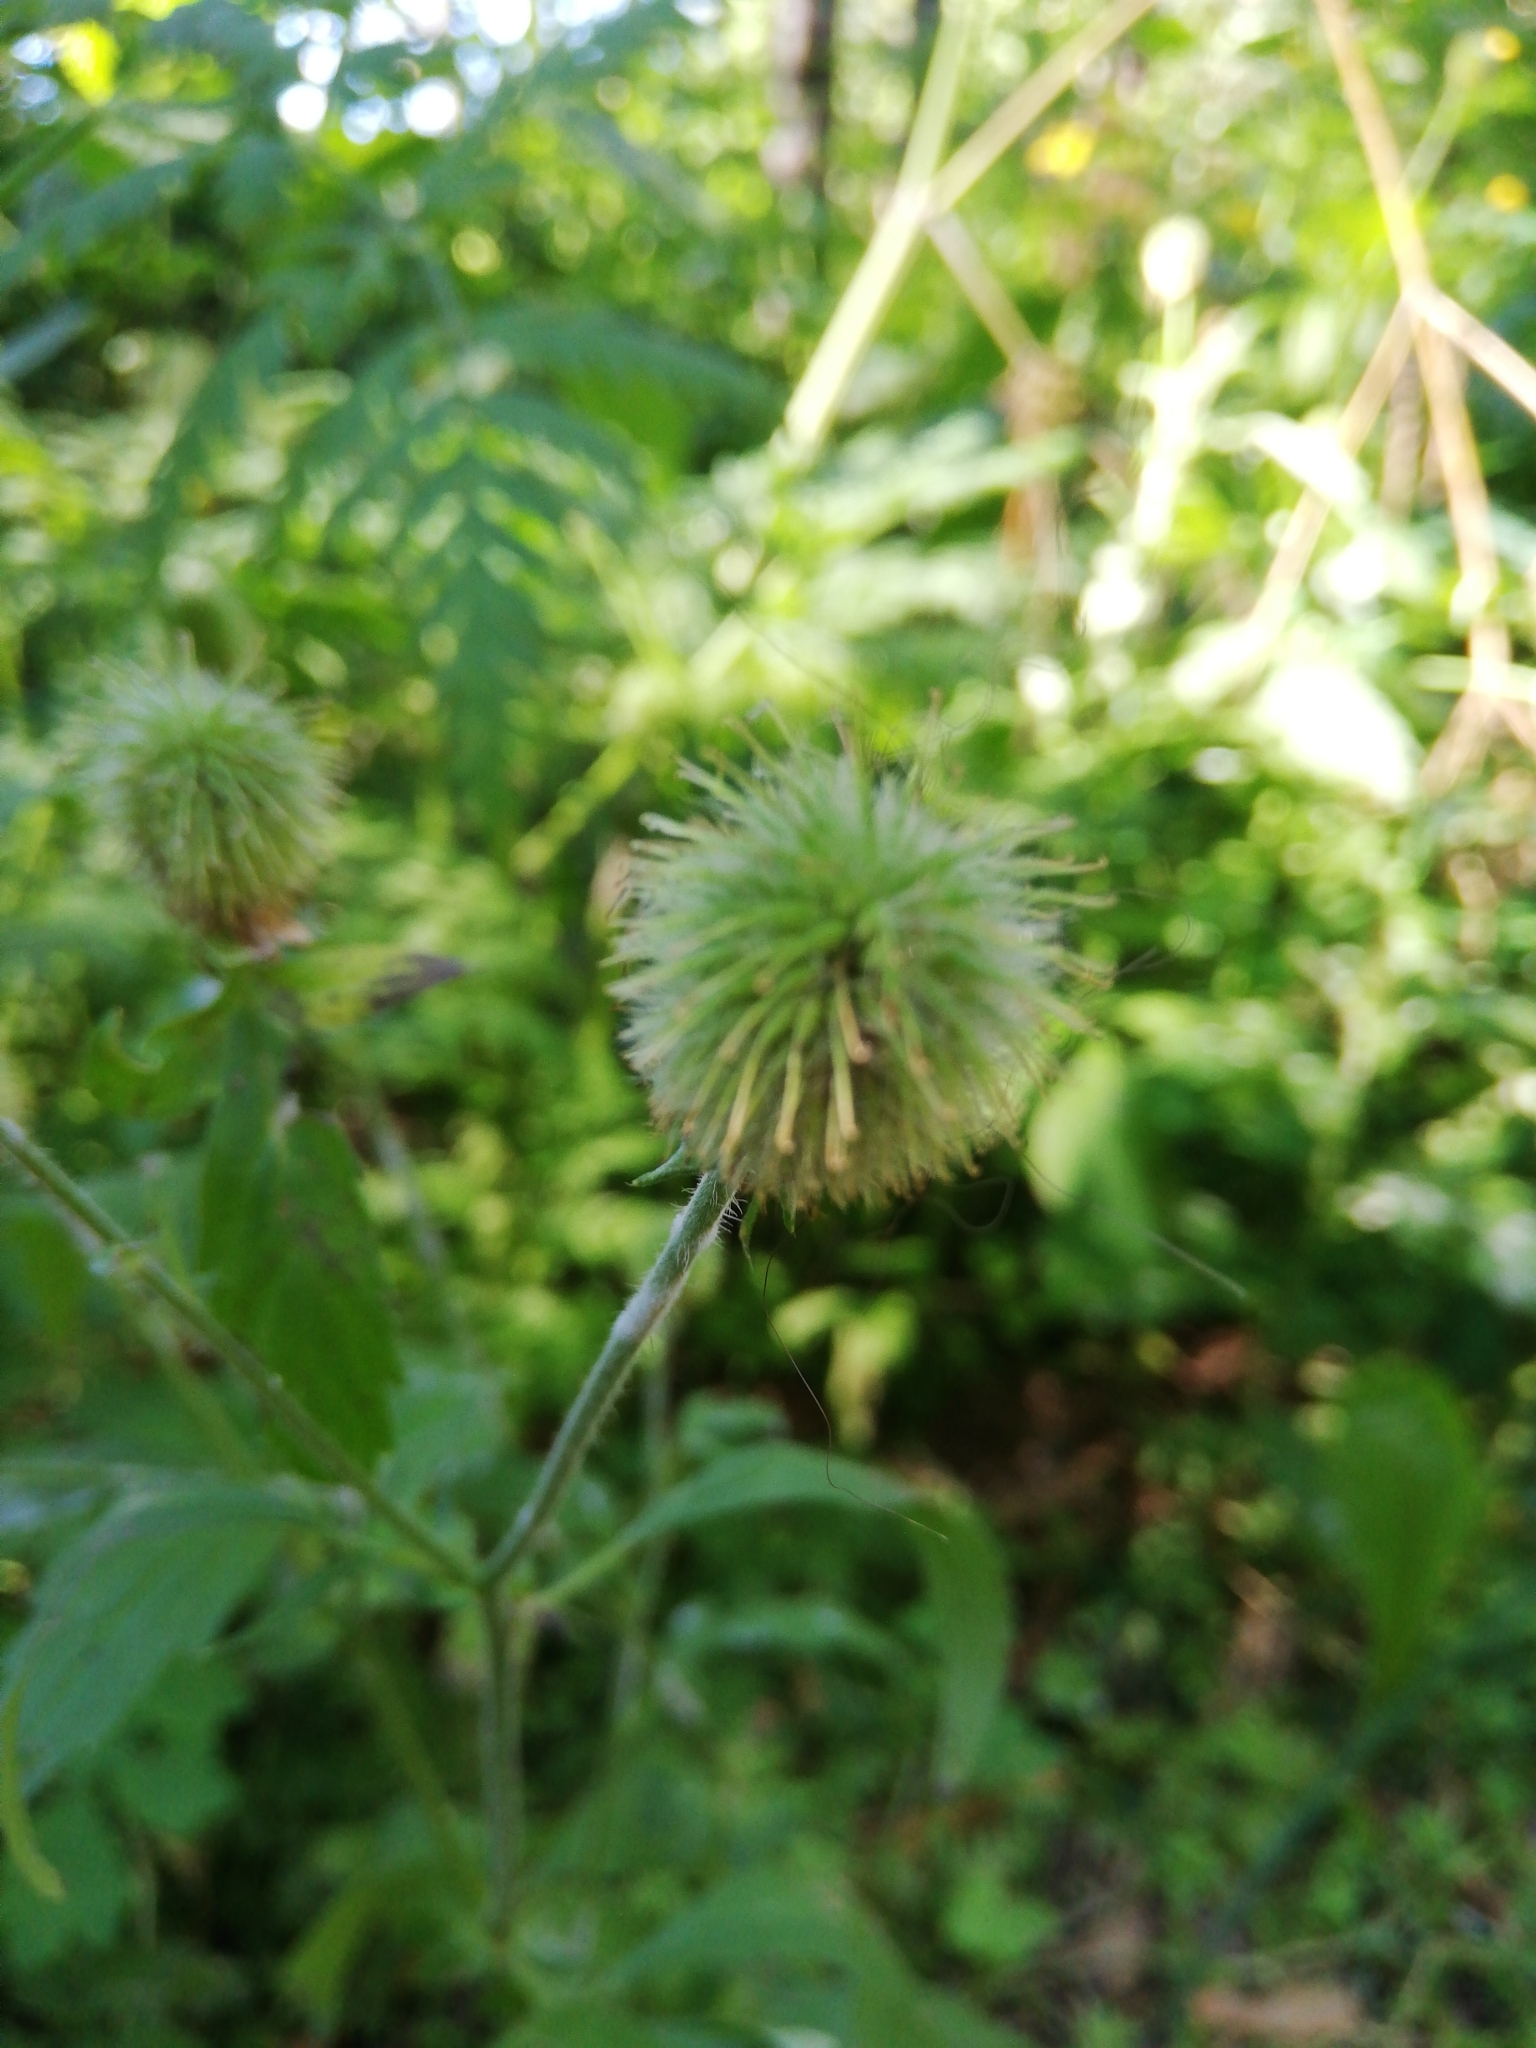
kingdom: Plantae
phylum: Tracheophyta
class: Magnoliopsida
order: Rosales
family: Rosaceae
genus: Geum
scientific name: Geum aleppicum
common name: Yellow avens
